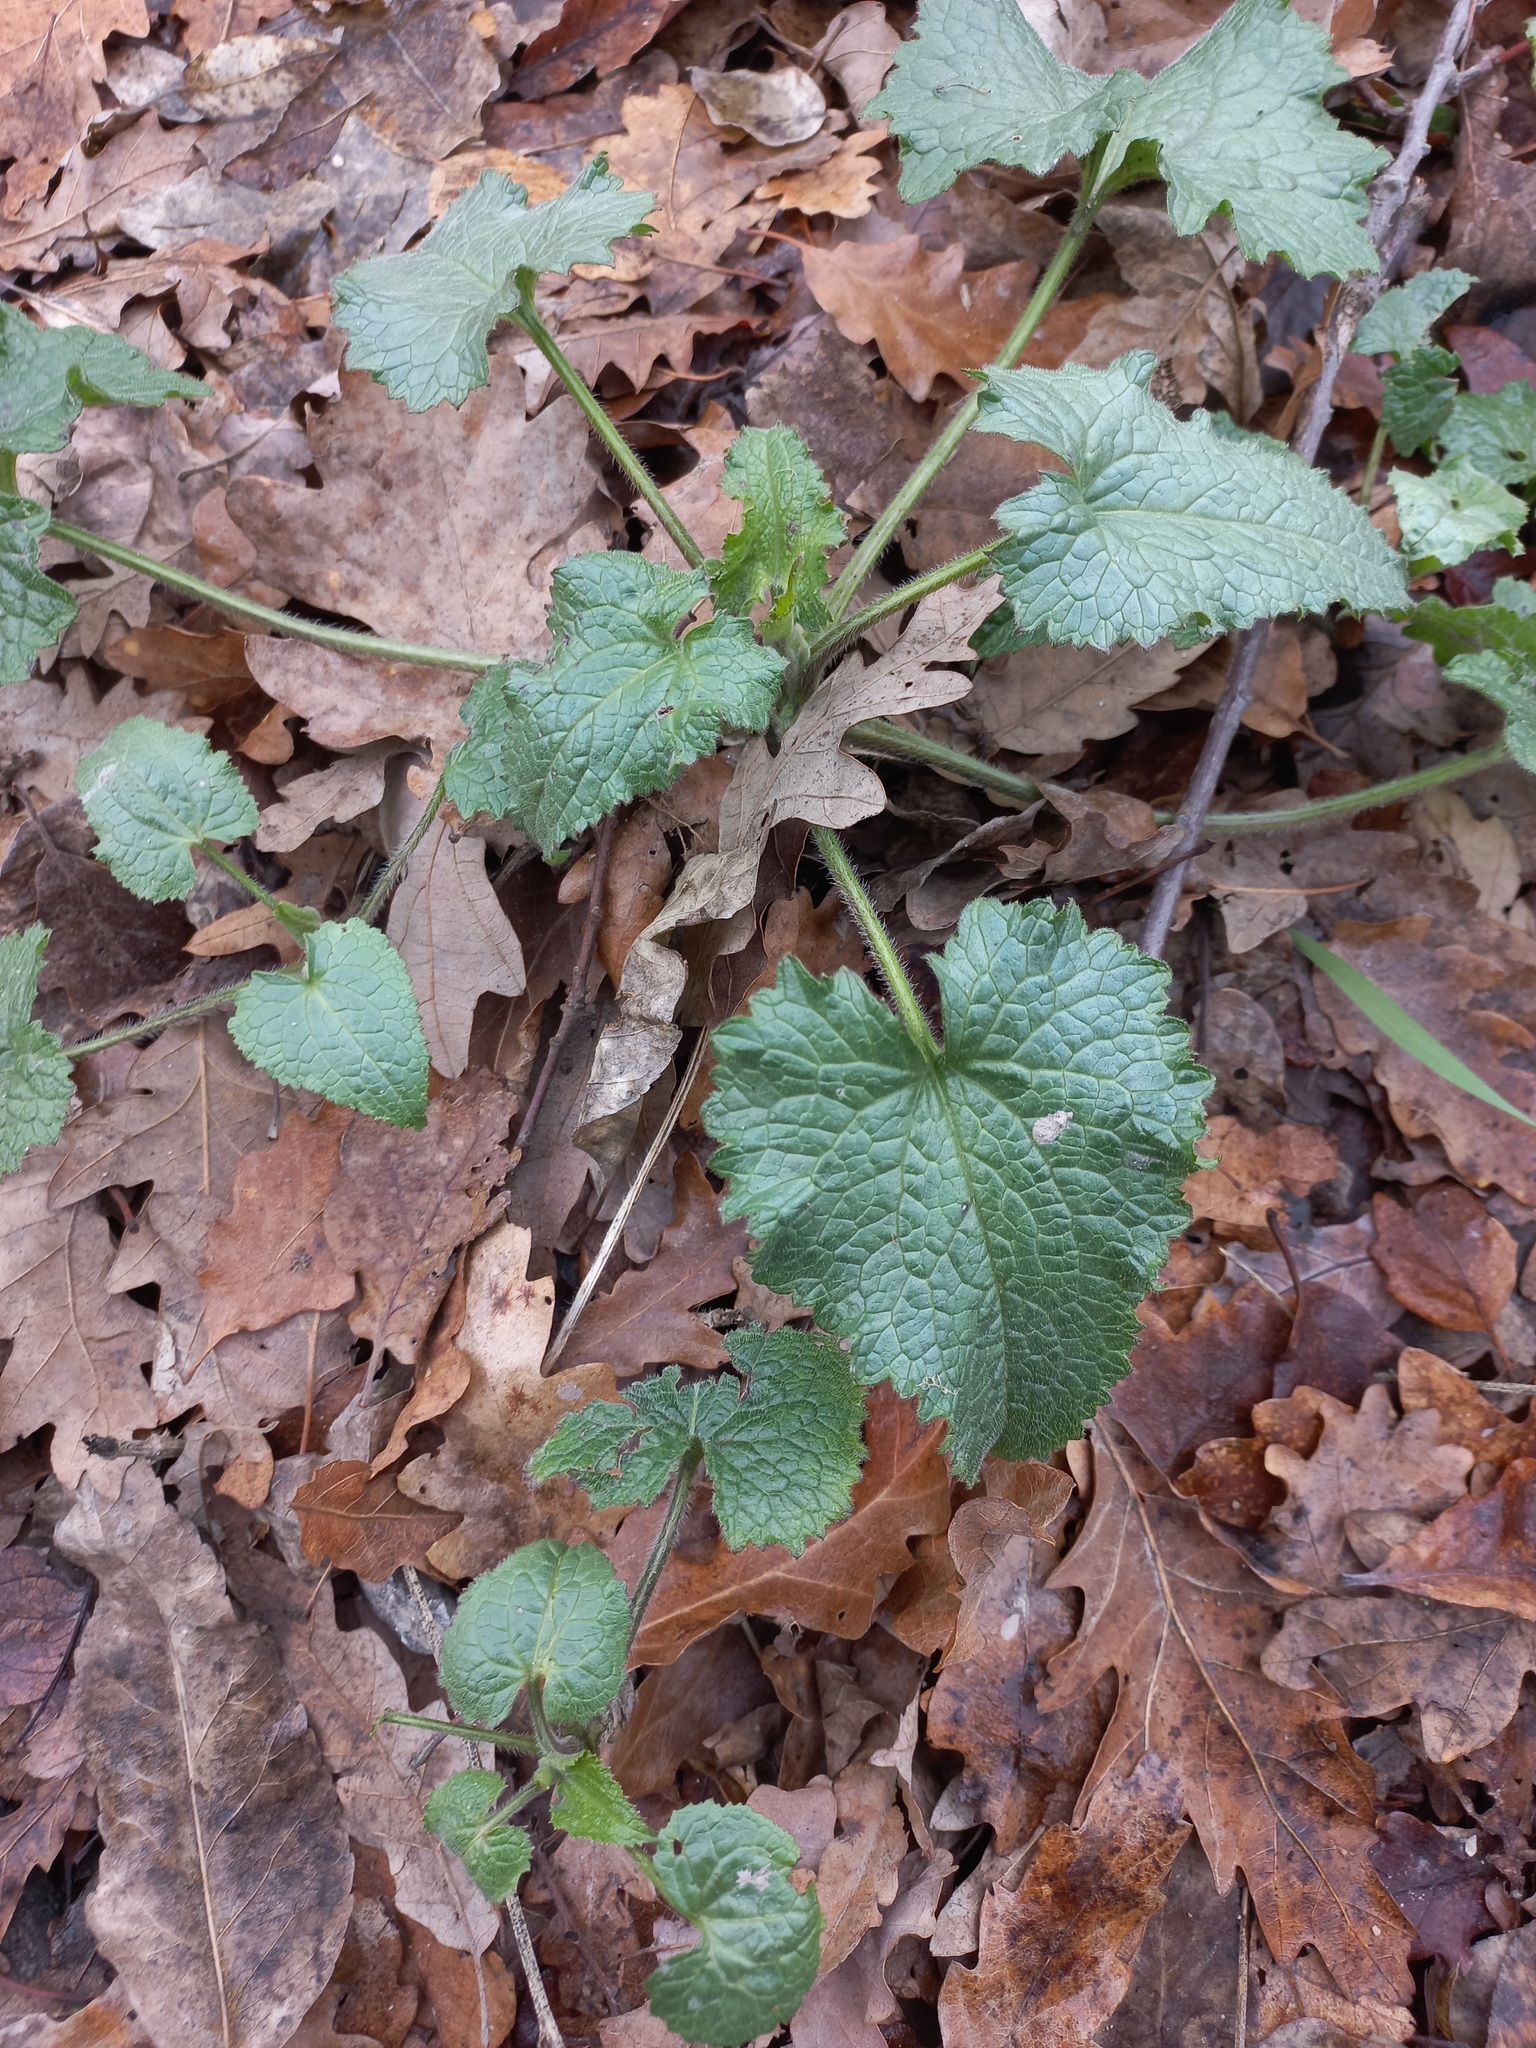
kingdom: Plantae
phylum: Tracheophyta
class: Magnoliopsida
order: Brassicales
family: Brassicaceae
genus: Lunaria
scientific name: Lunaria annua
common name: Honesty
